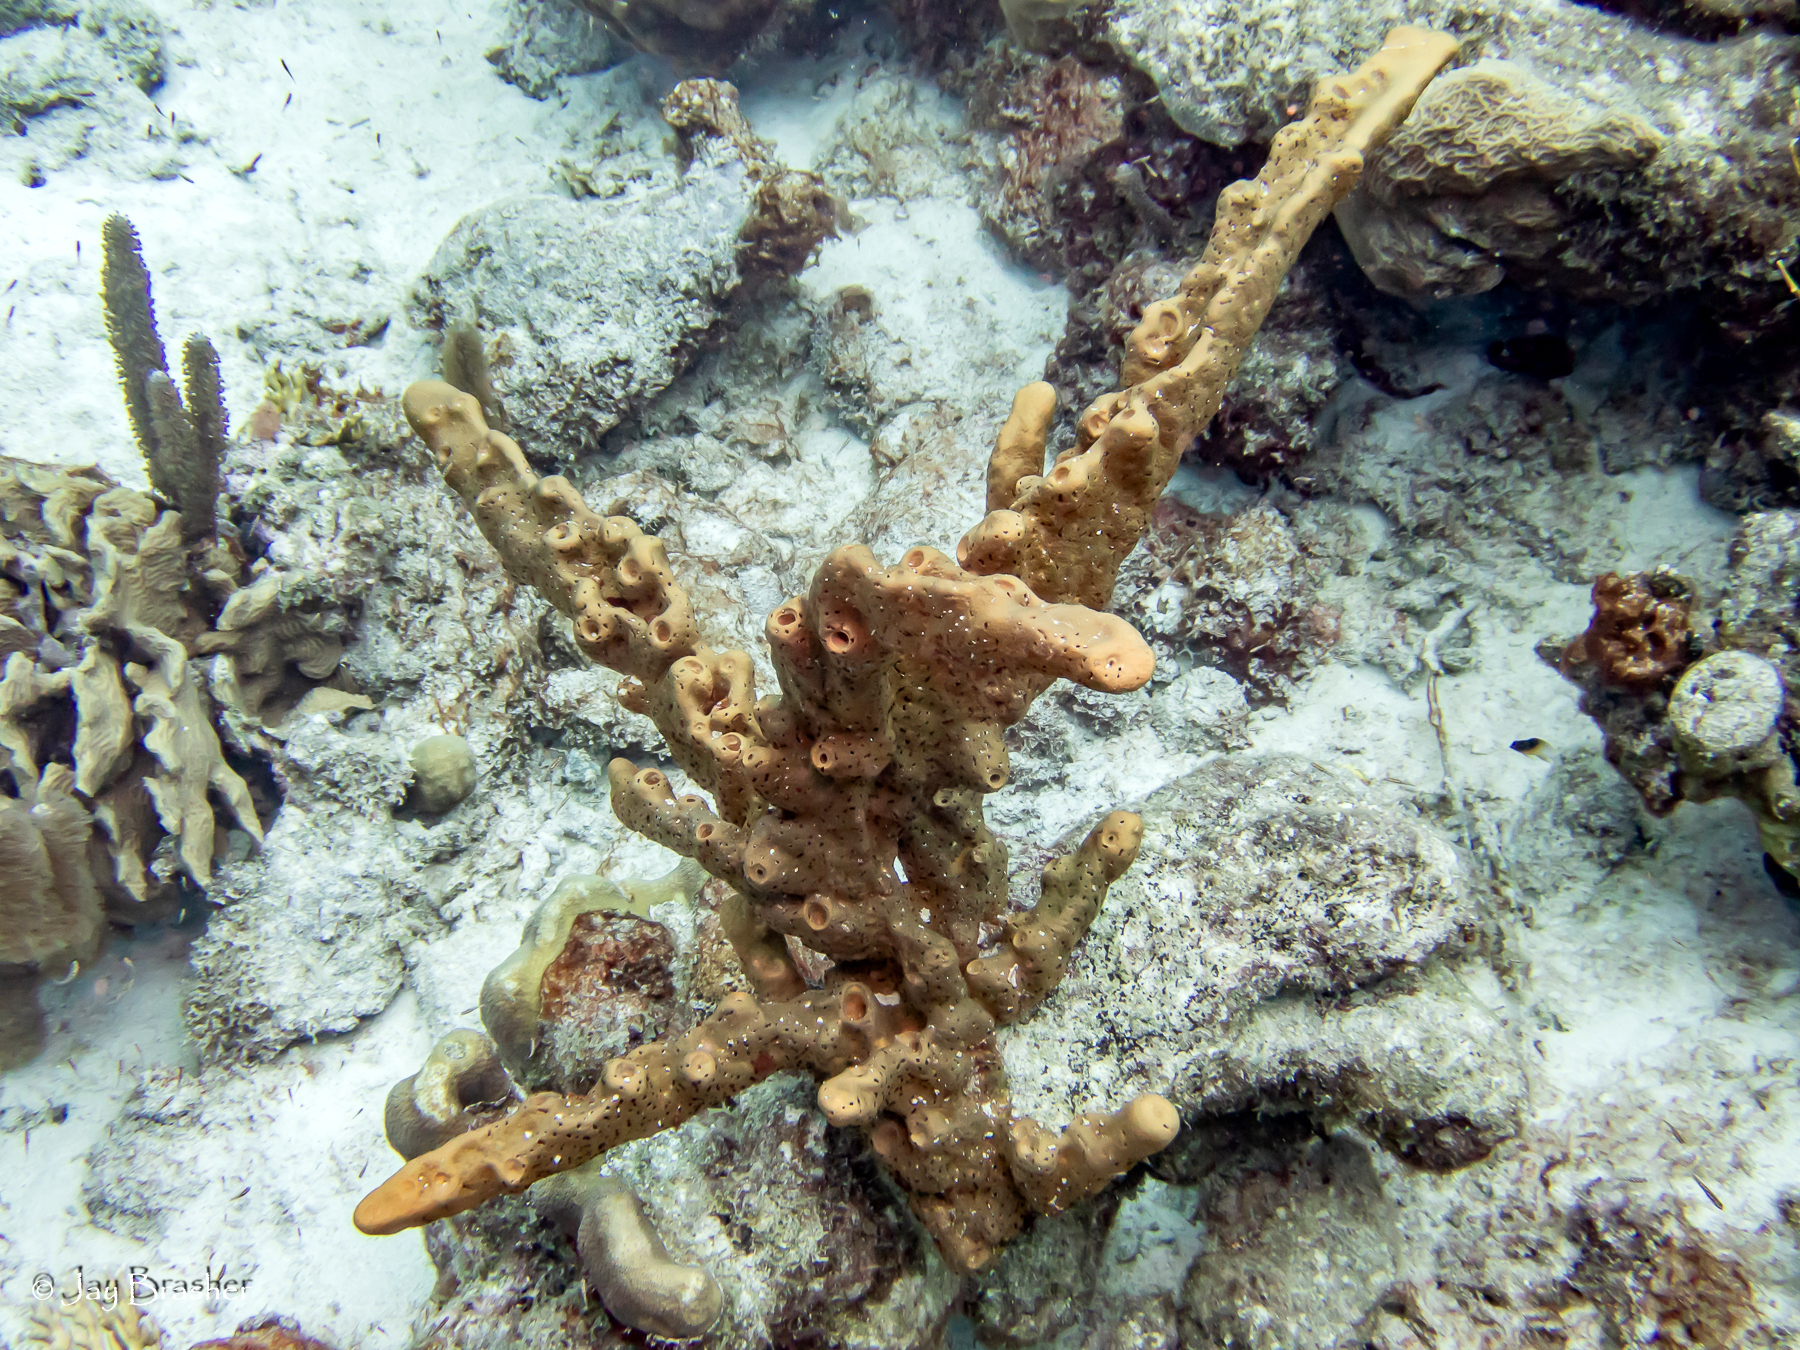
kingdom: Animalia
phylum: Porifera
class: Demospongiae
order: Agelasida
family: Agelasidae
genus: Agelas
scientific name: Agelas conifera
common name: Brown tube sponge
